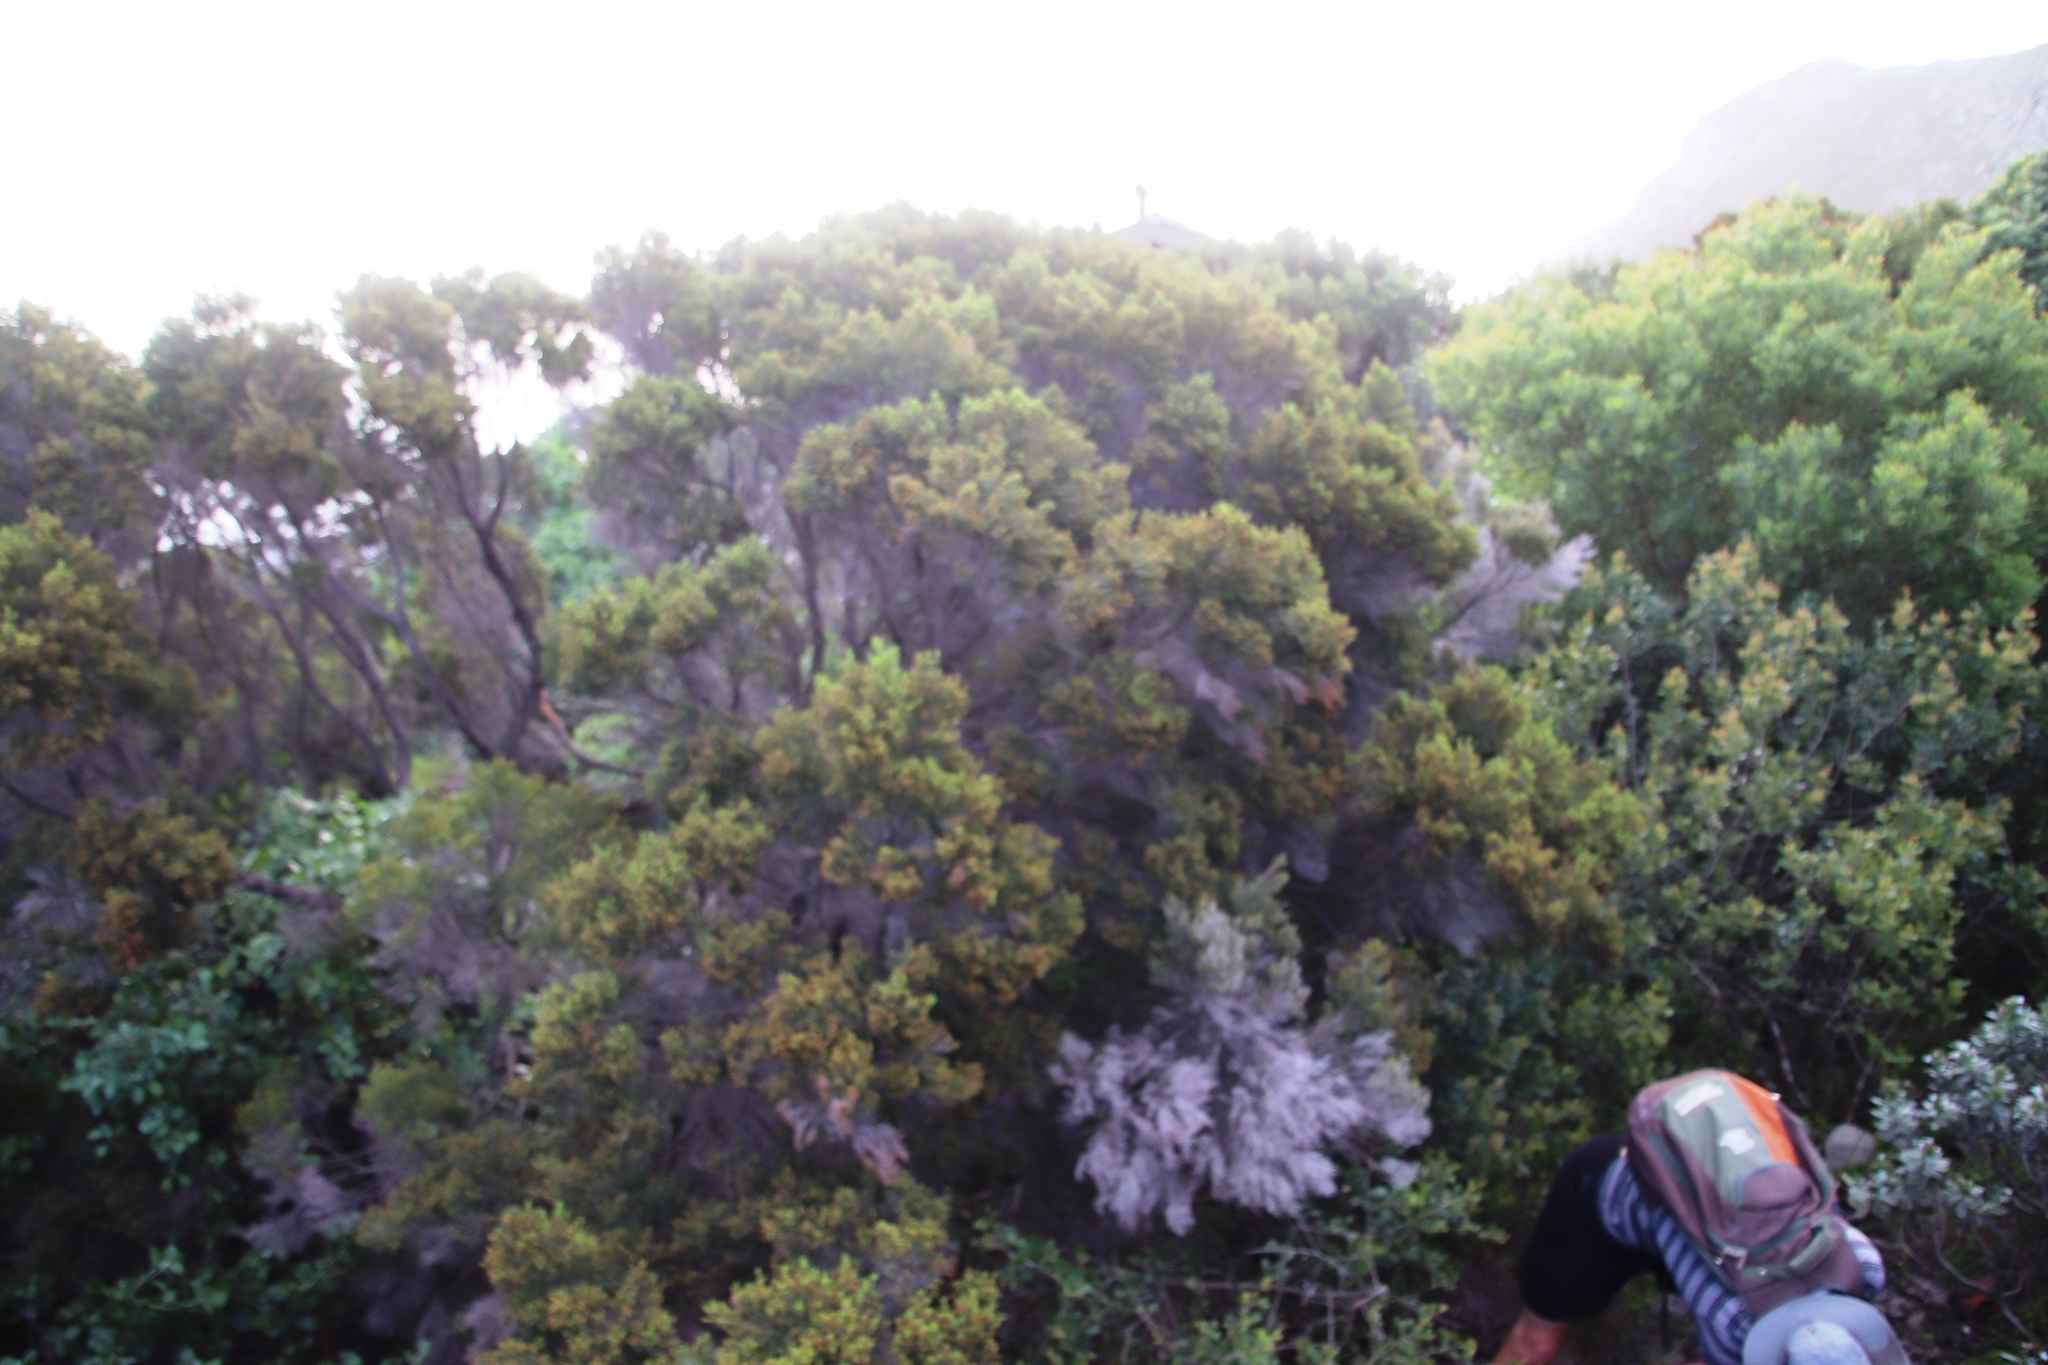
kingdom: Plantae
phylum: Tracheophyta
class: Magnoliopsida
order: Ericales
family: Ericaceae
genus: Erica
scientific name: Erica tristis
